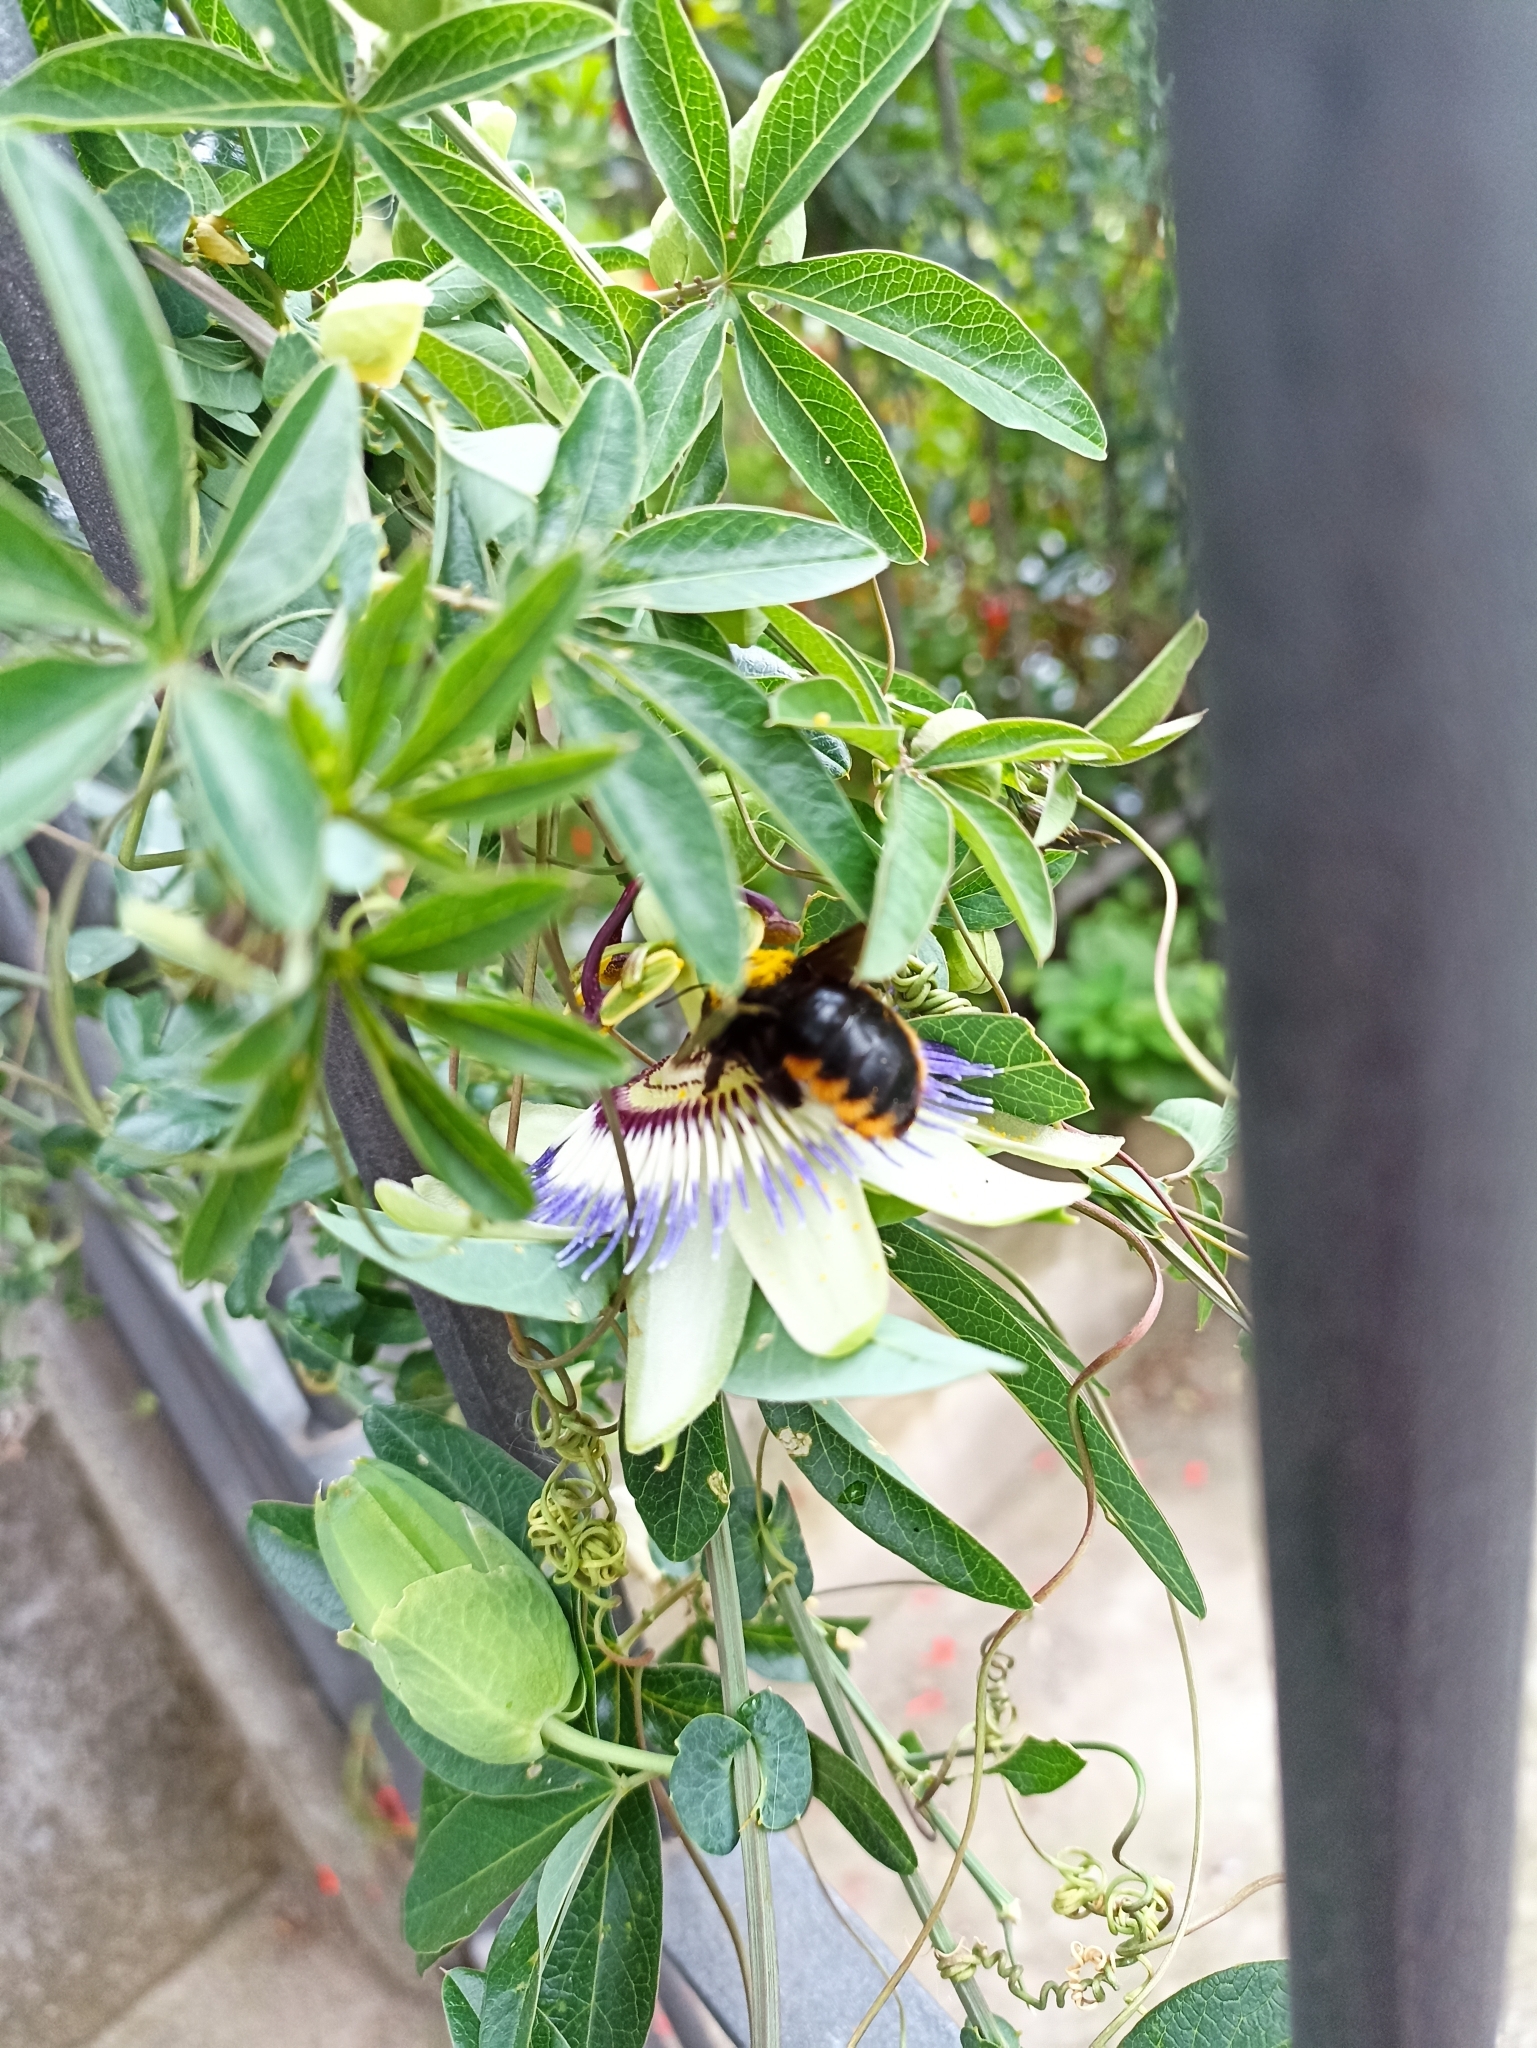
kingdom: Animalia
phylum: Arthropoda
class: Insecta
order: Hymenoptera
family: Apidae
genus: Xylocopa
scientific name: Xylocopa augusti
